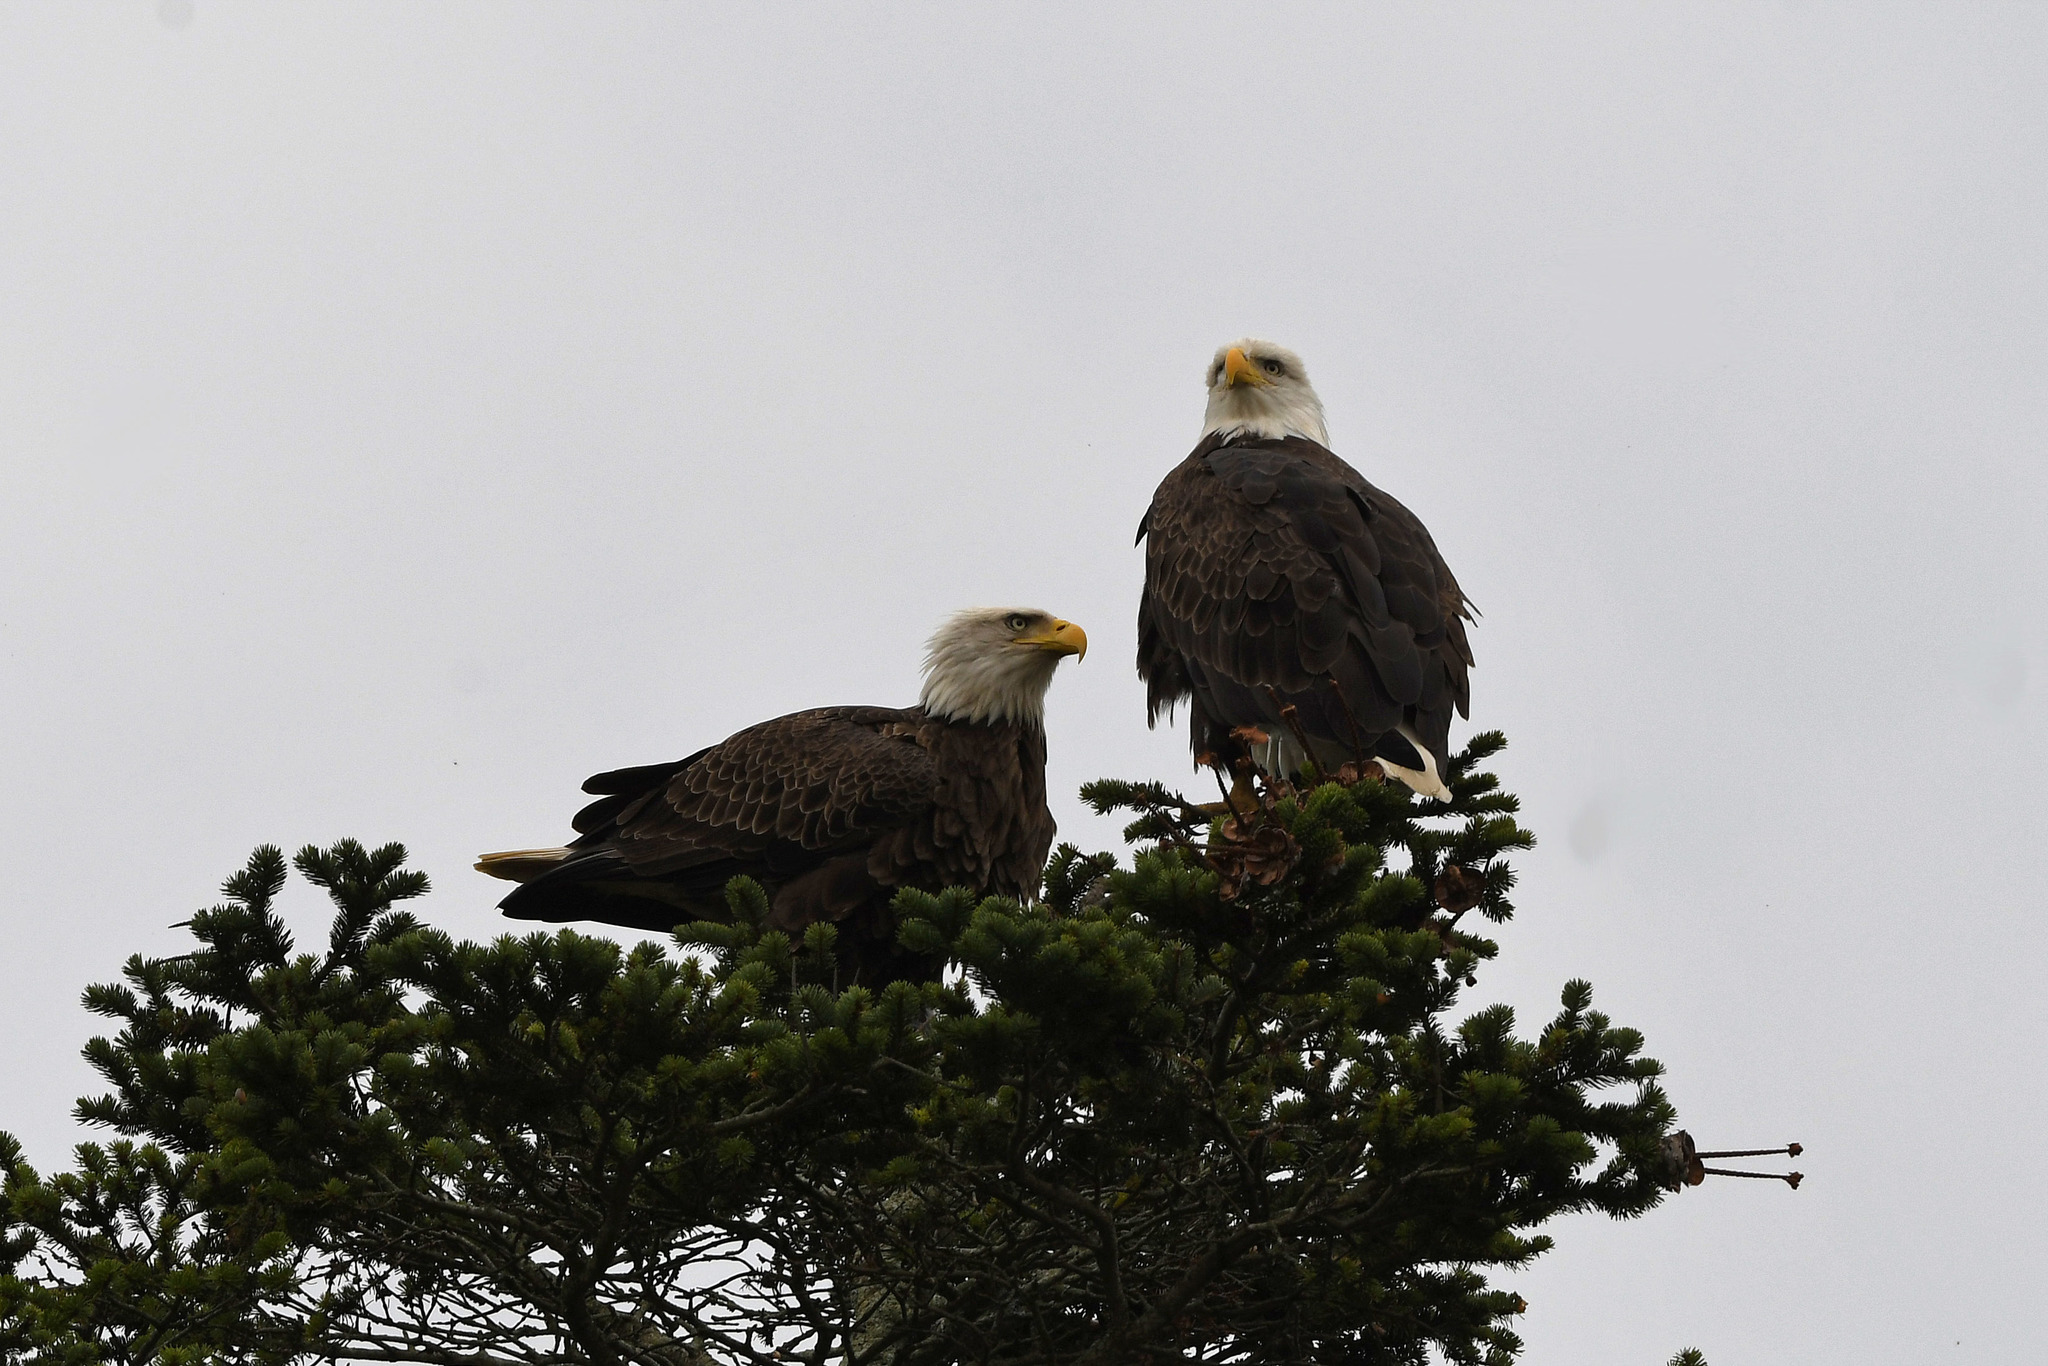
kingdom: Animalia
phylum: Chordata
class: Aves
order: Accipitriformes
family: Accipitridae
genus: Haliaeetus
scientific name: Haliaeetus leucocephalus
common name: Bald eagle
